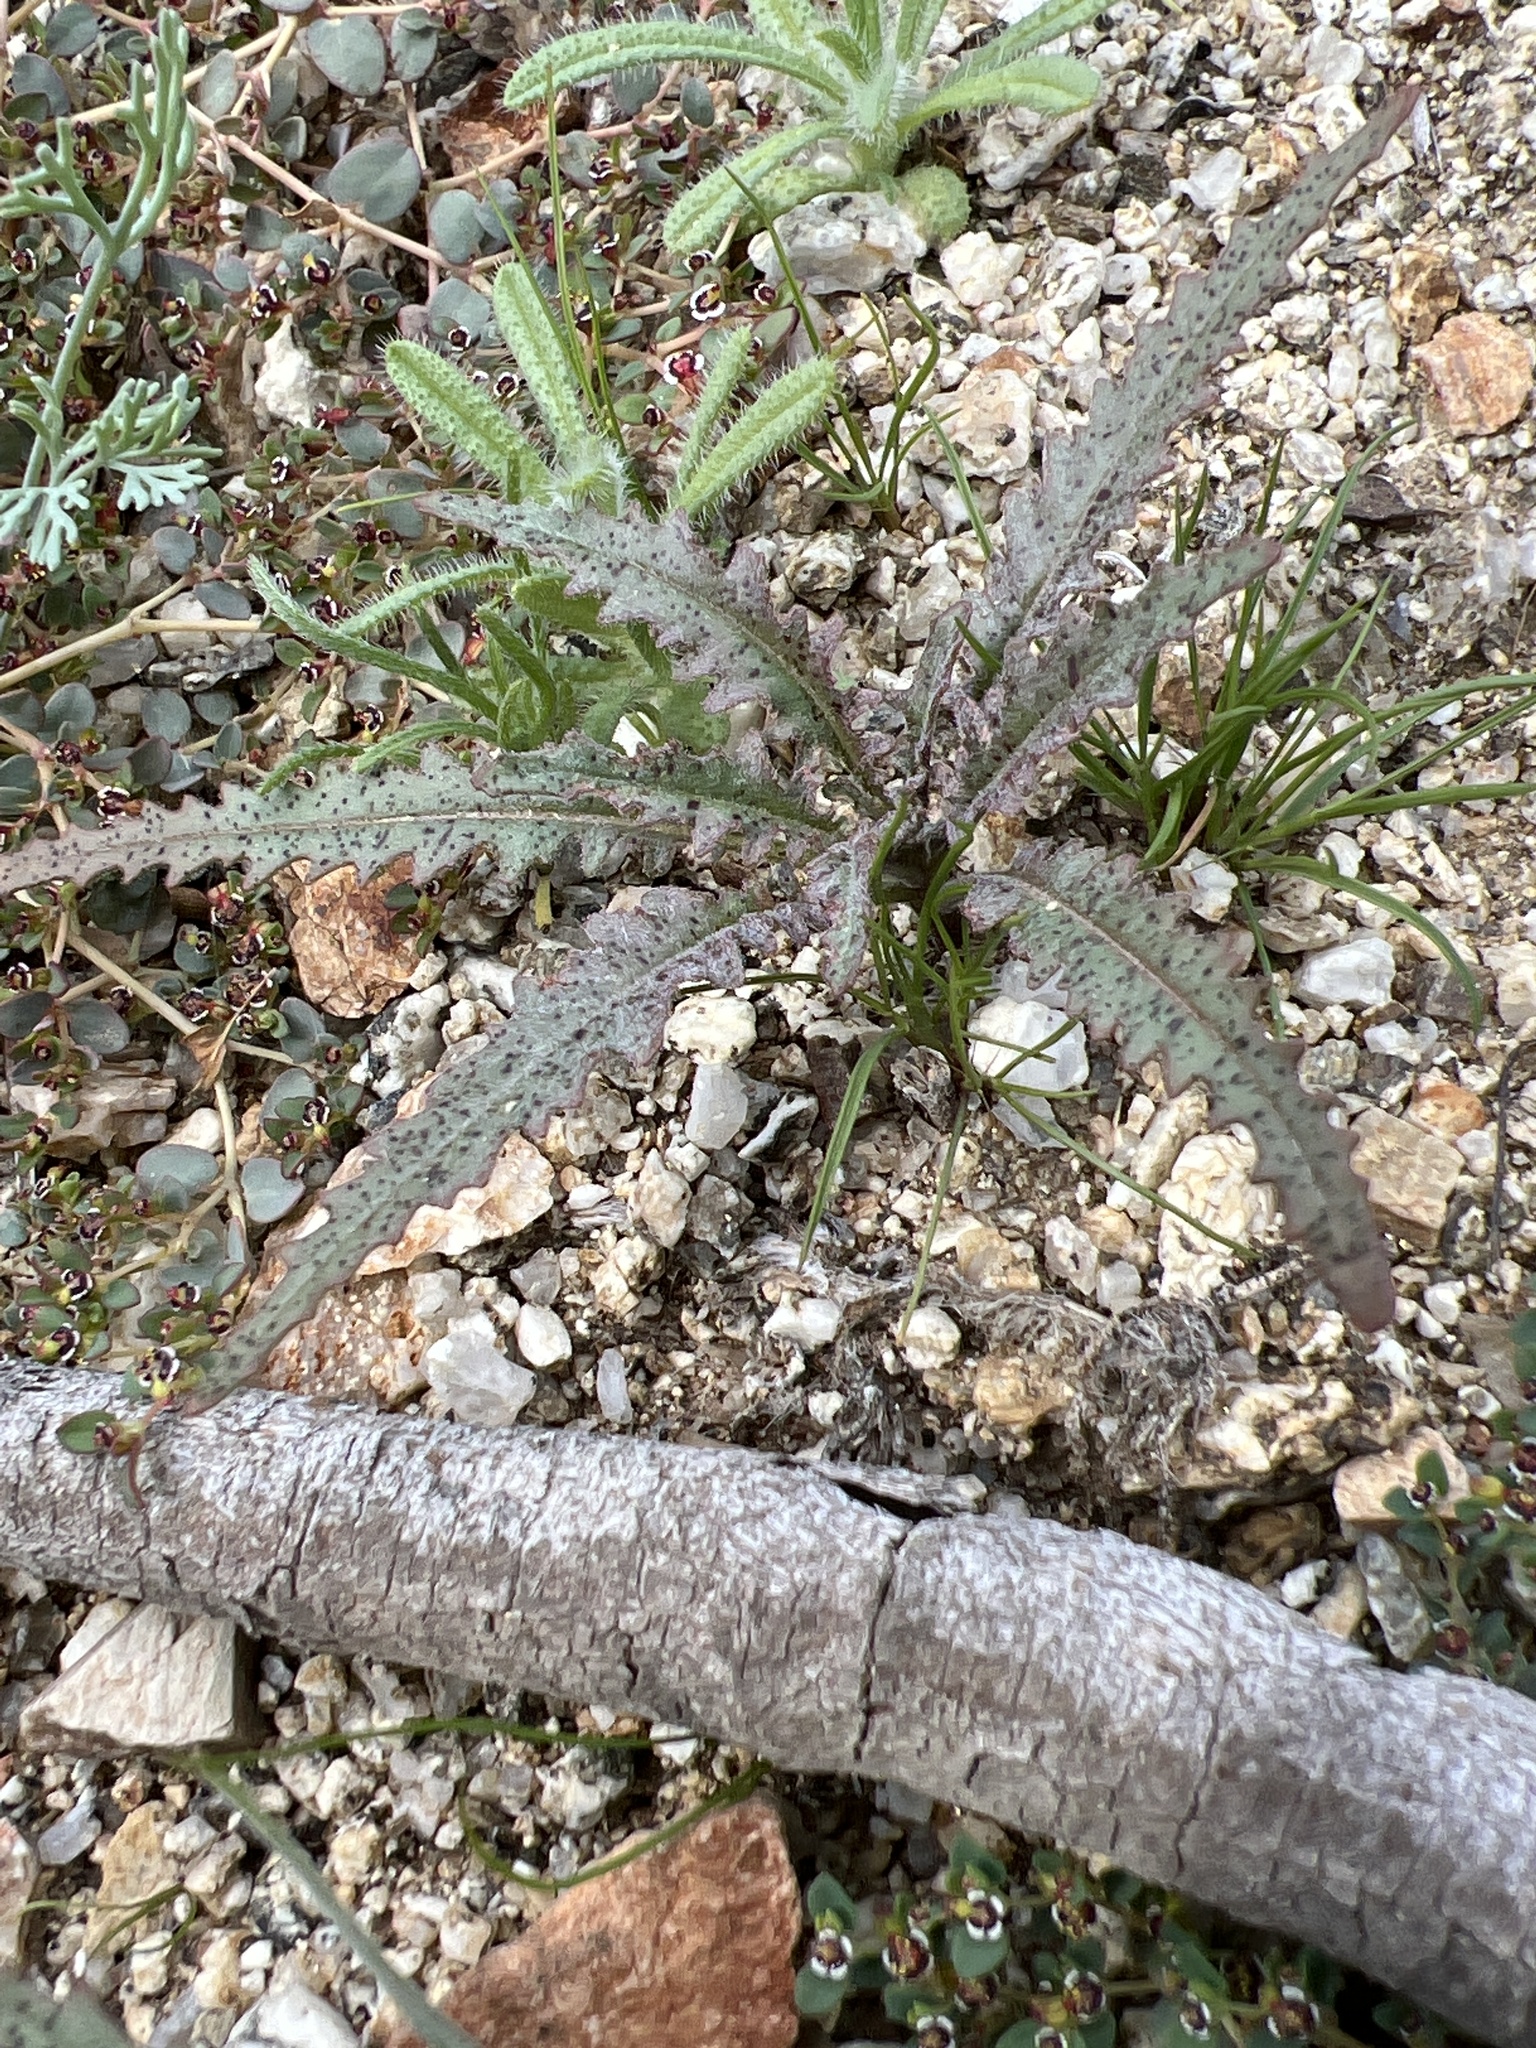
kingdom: Plantae
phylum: Tracheophyta
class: Magnoliopsida
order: Myrtales
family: Onagraceae
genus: Eulobus
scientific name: Eulobus californicus
